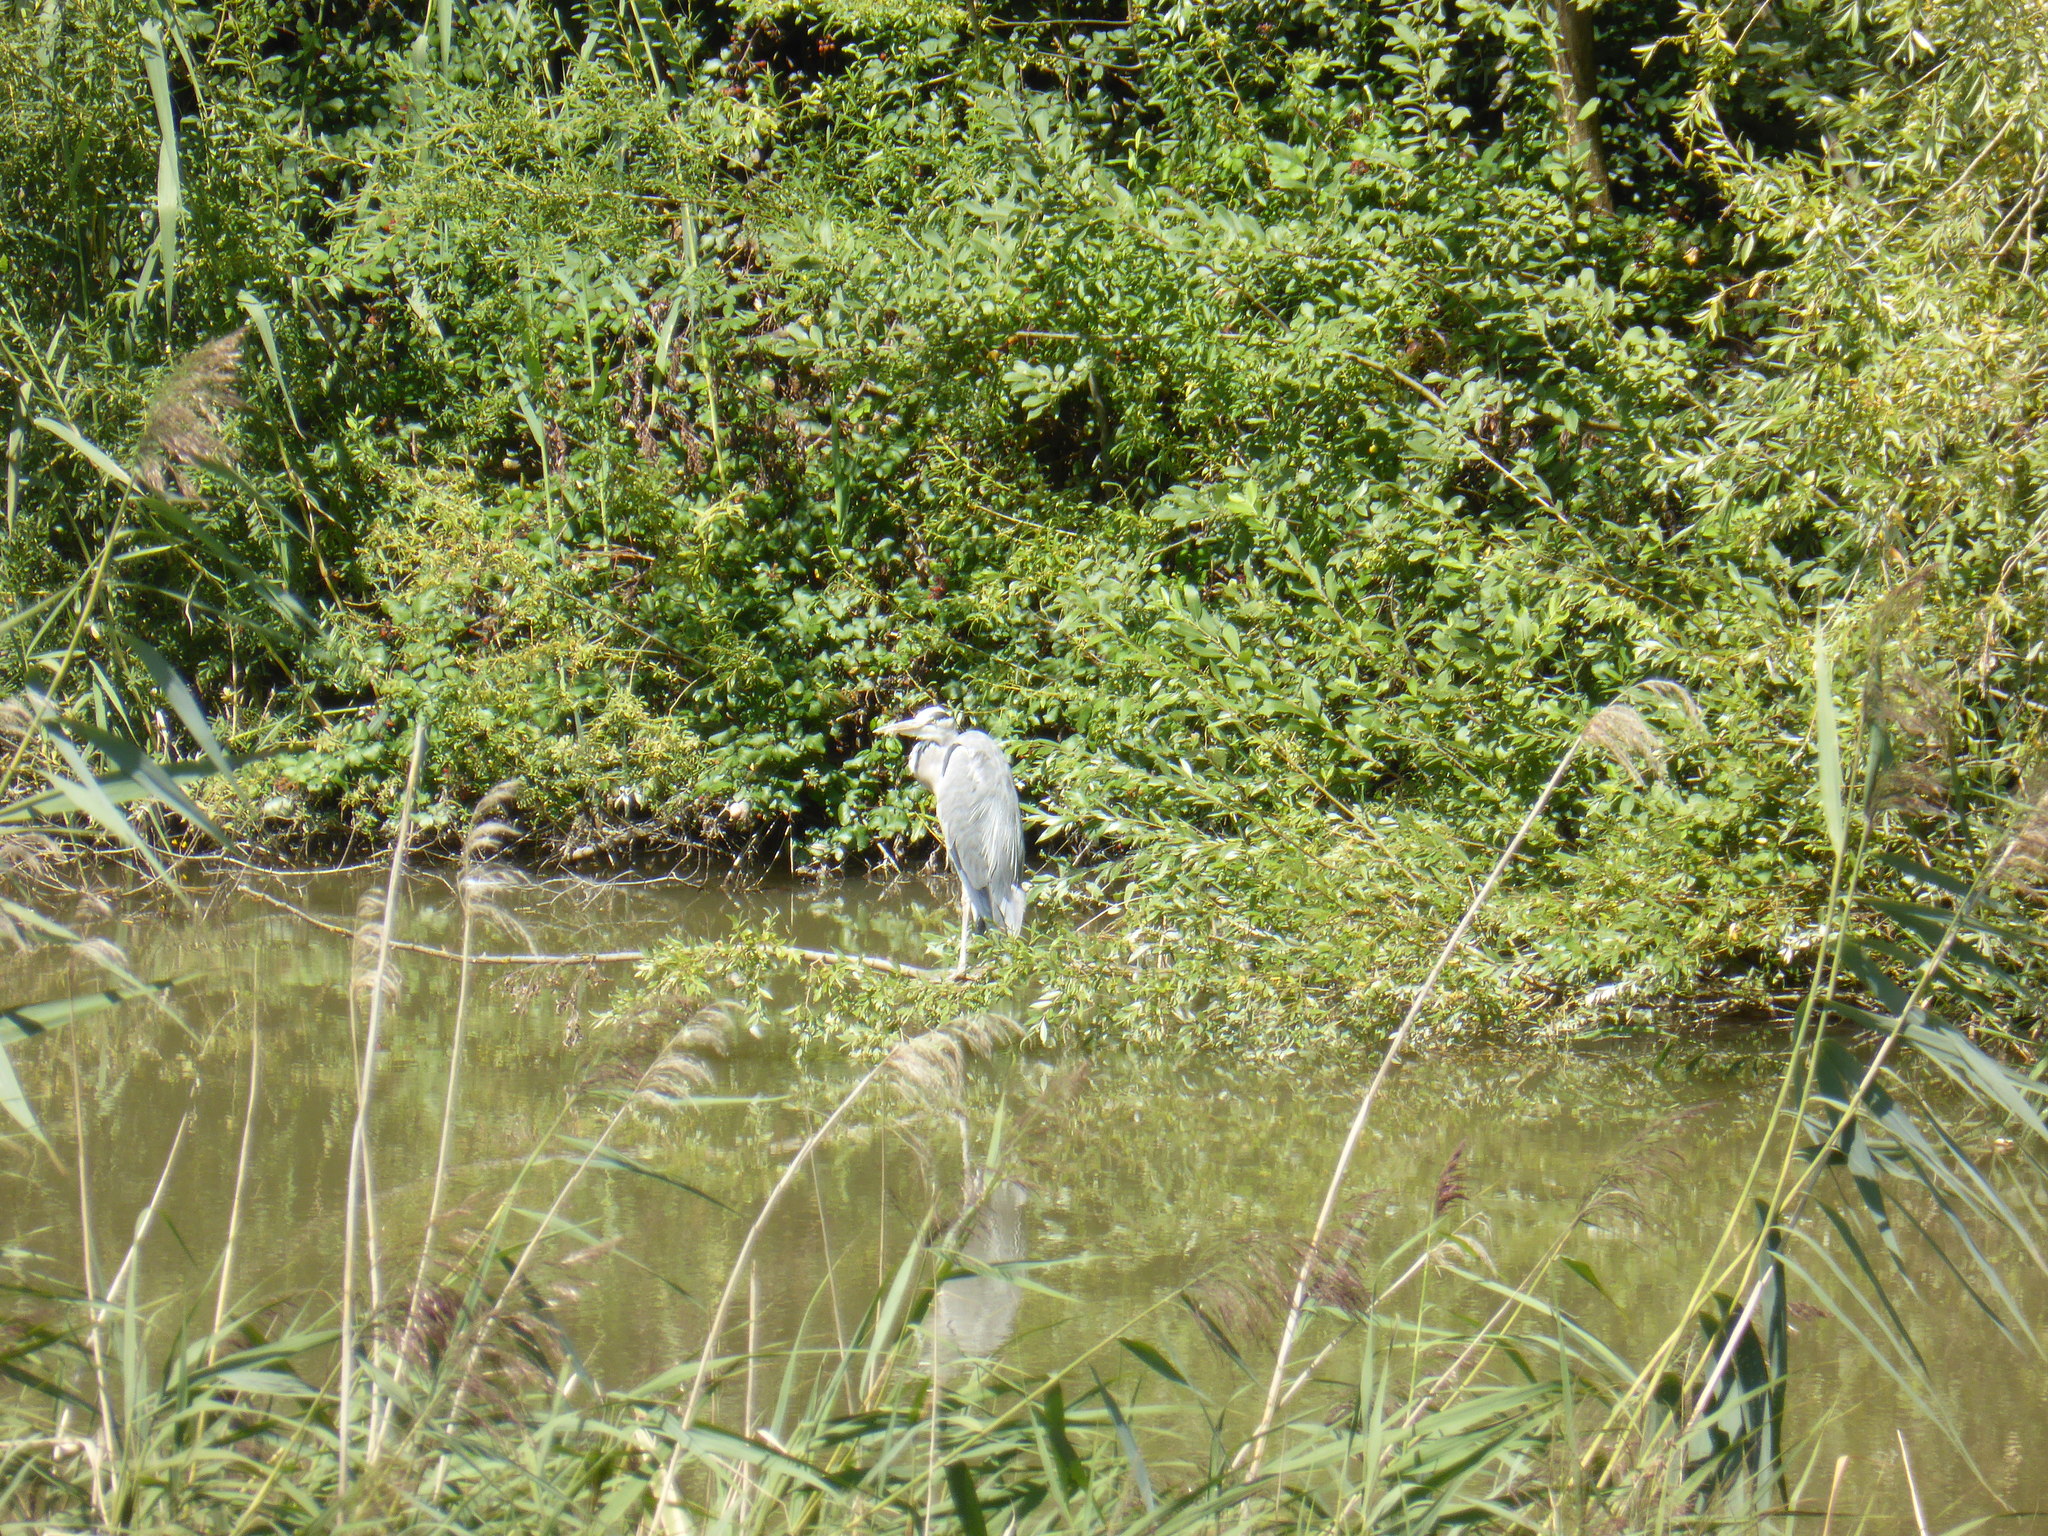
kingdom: Animalia
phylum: Chordata
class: Aves
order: Pelecaniformes
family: Ardeidae
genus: Ardea
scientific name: Ardea cinerea
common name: Grey heron
